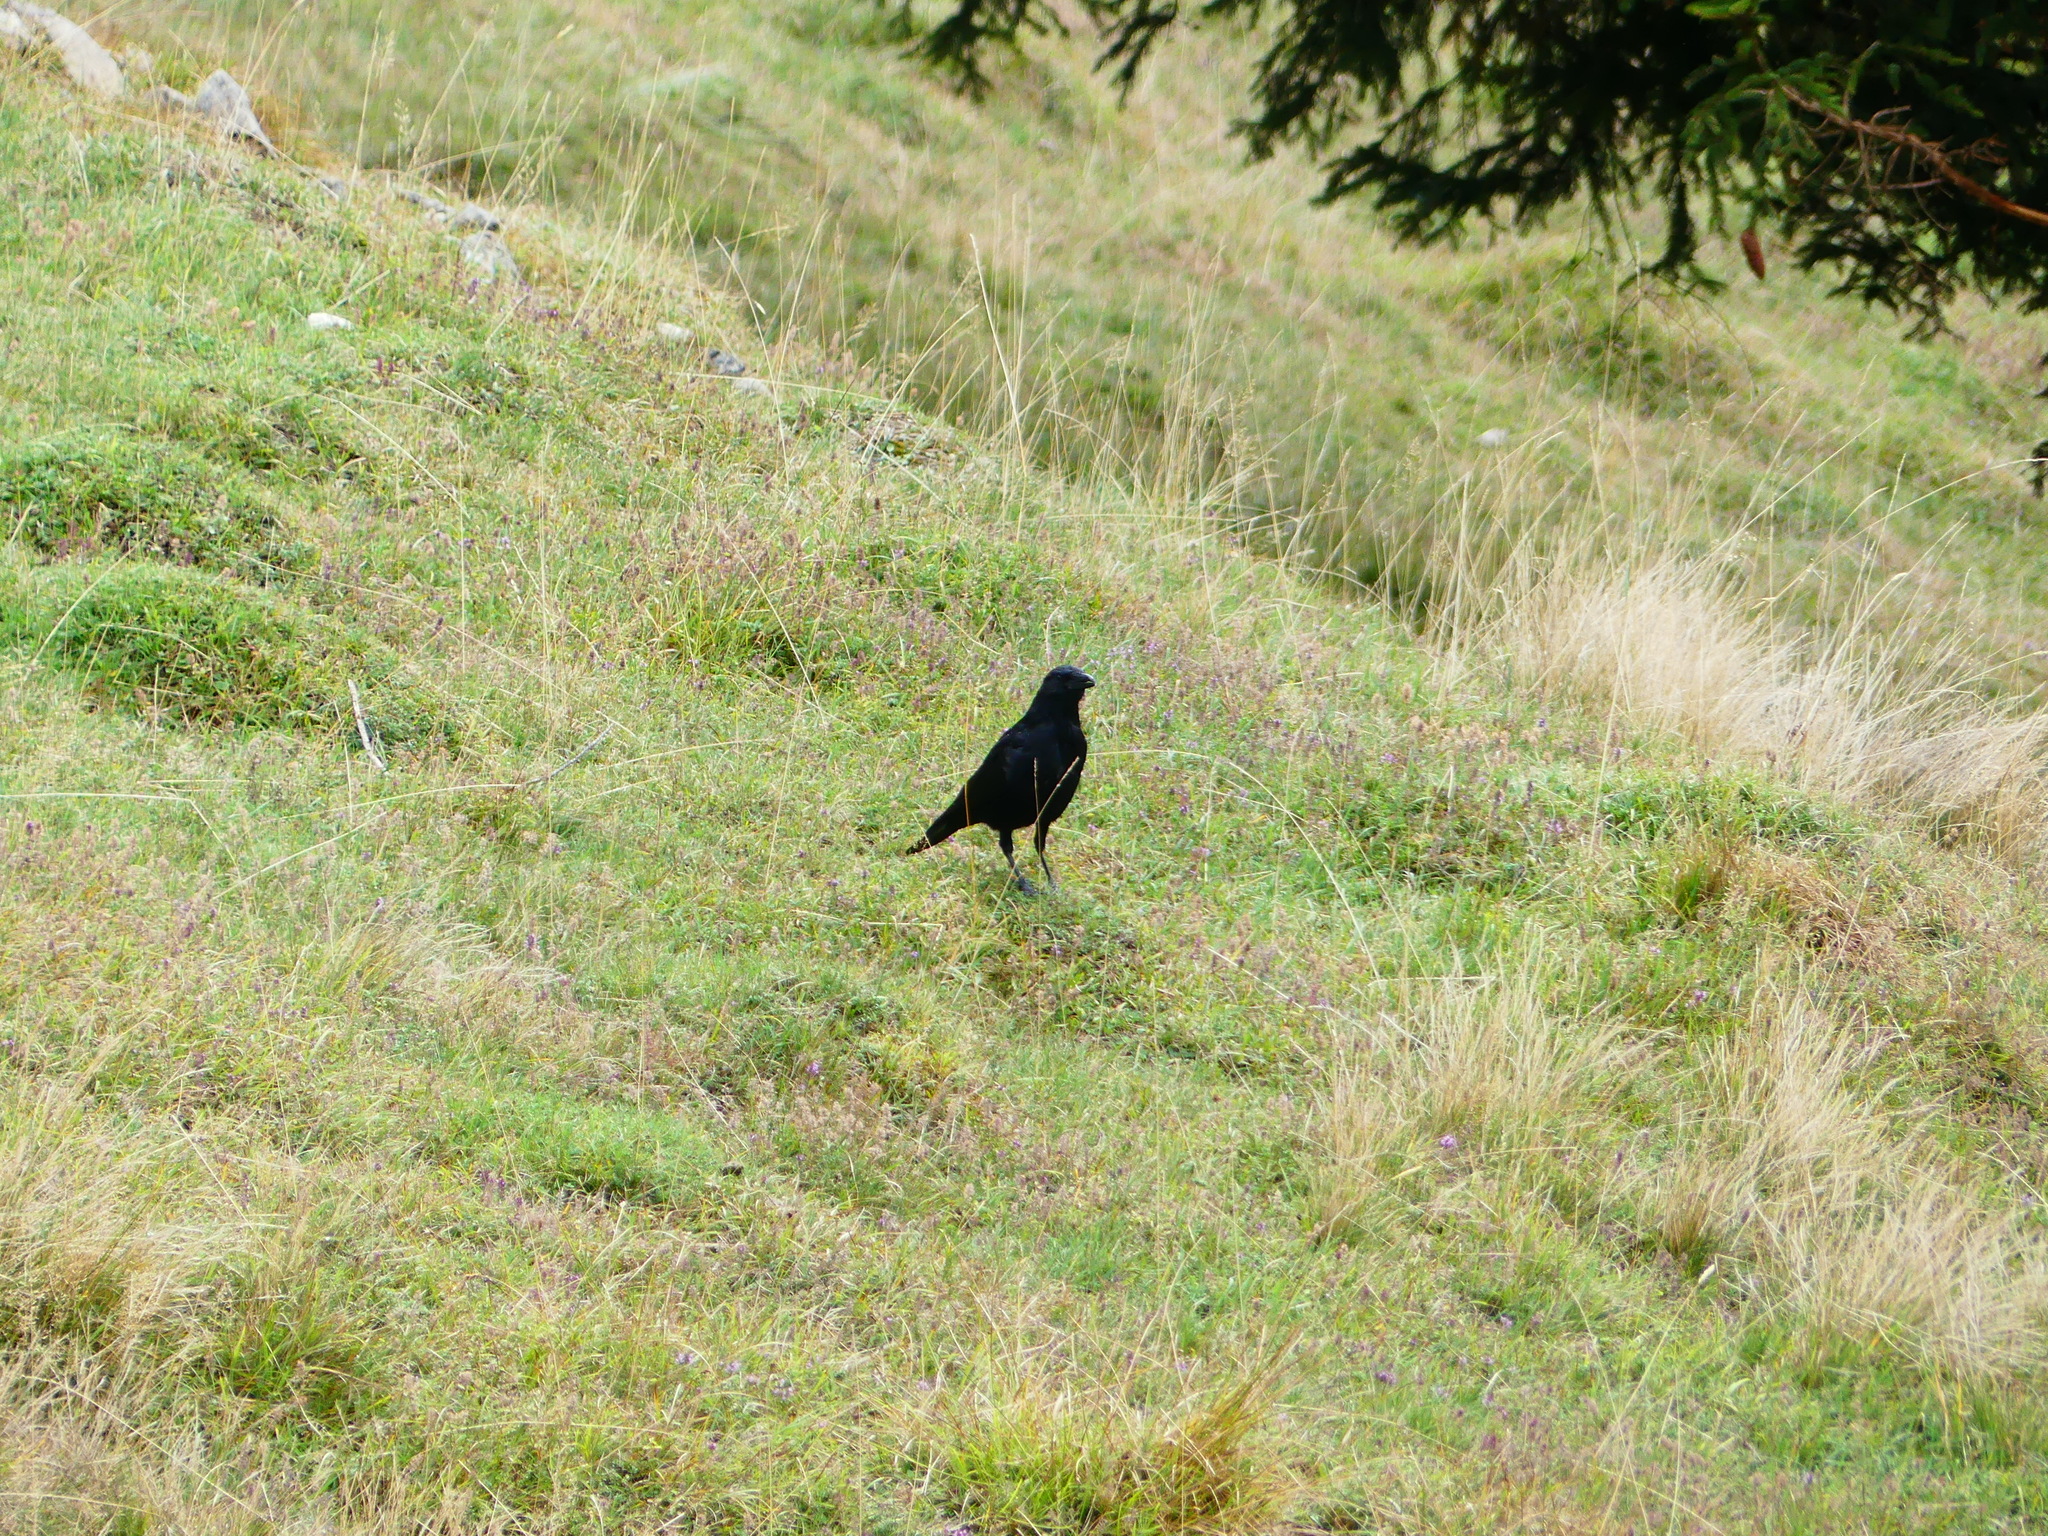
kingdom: Animalia
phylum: Chordata
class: Aves
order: Passeriformes
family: Corvidae
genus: Corvus
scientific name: Corvus corone
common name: Carrion crow
